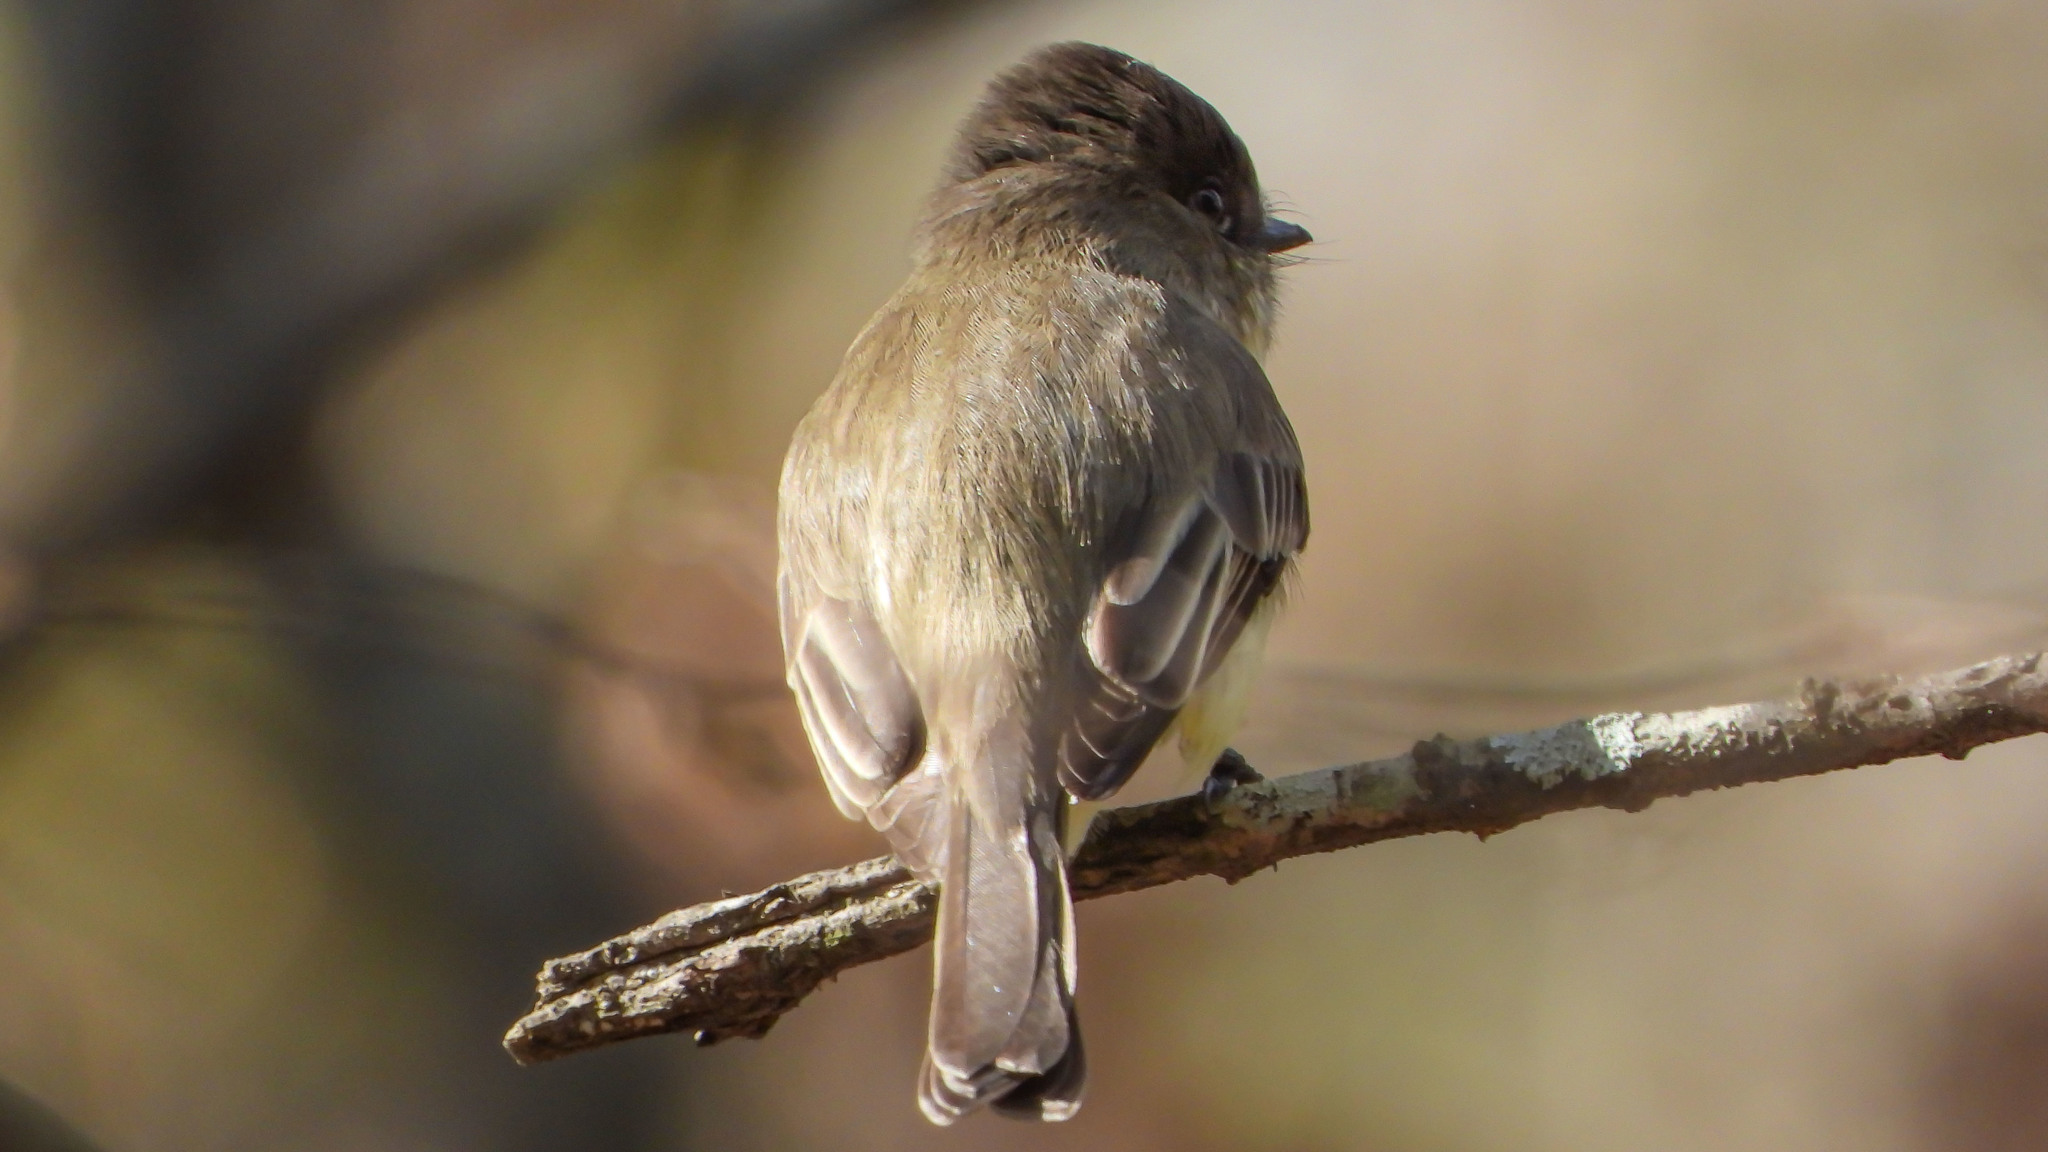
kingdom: Animalia
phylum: Chordata
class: Aves
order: Passeriformes
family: Tyrannidae
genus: Sayornis
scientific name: Sayornis phoebe
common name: Eastern phoebe
